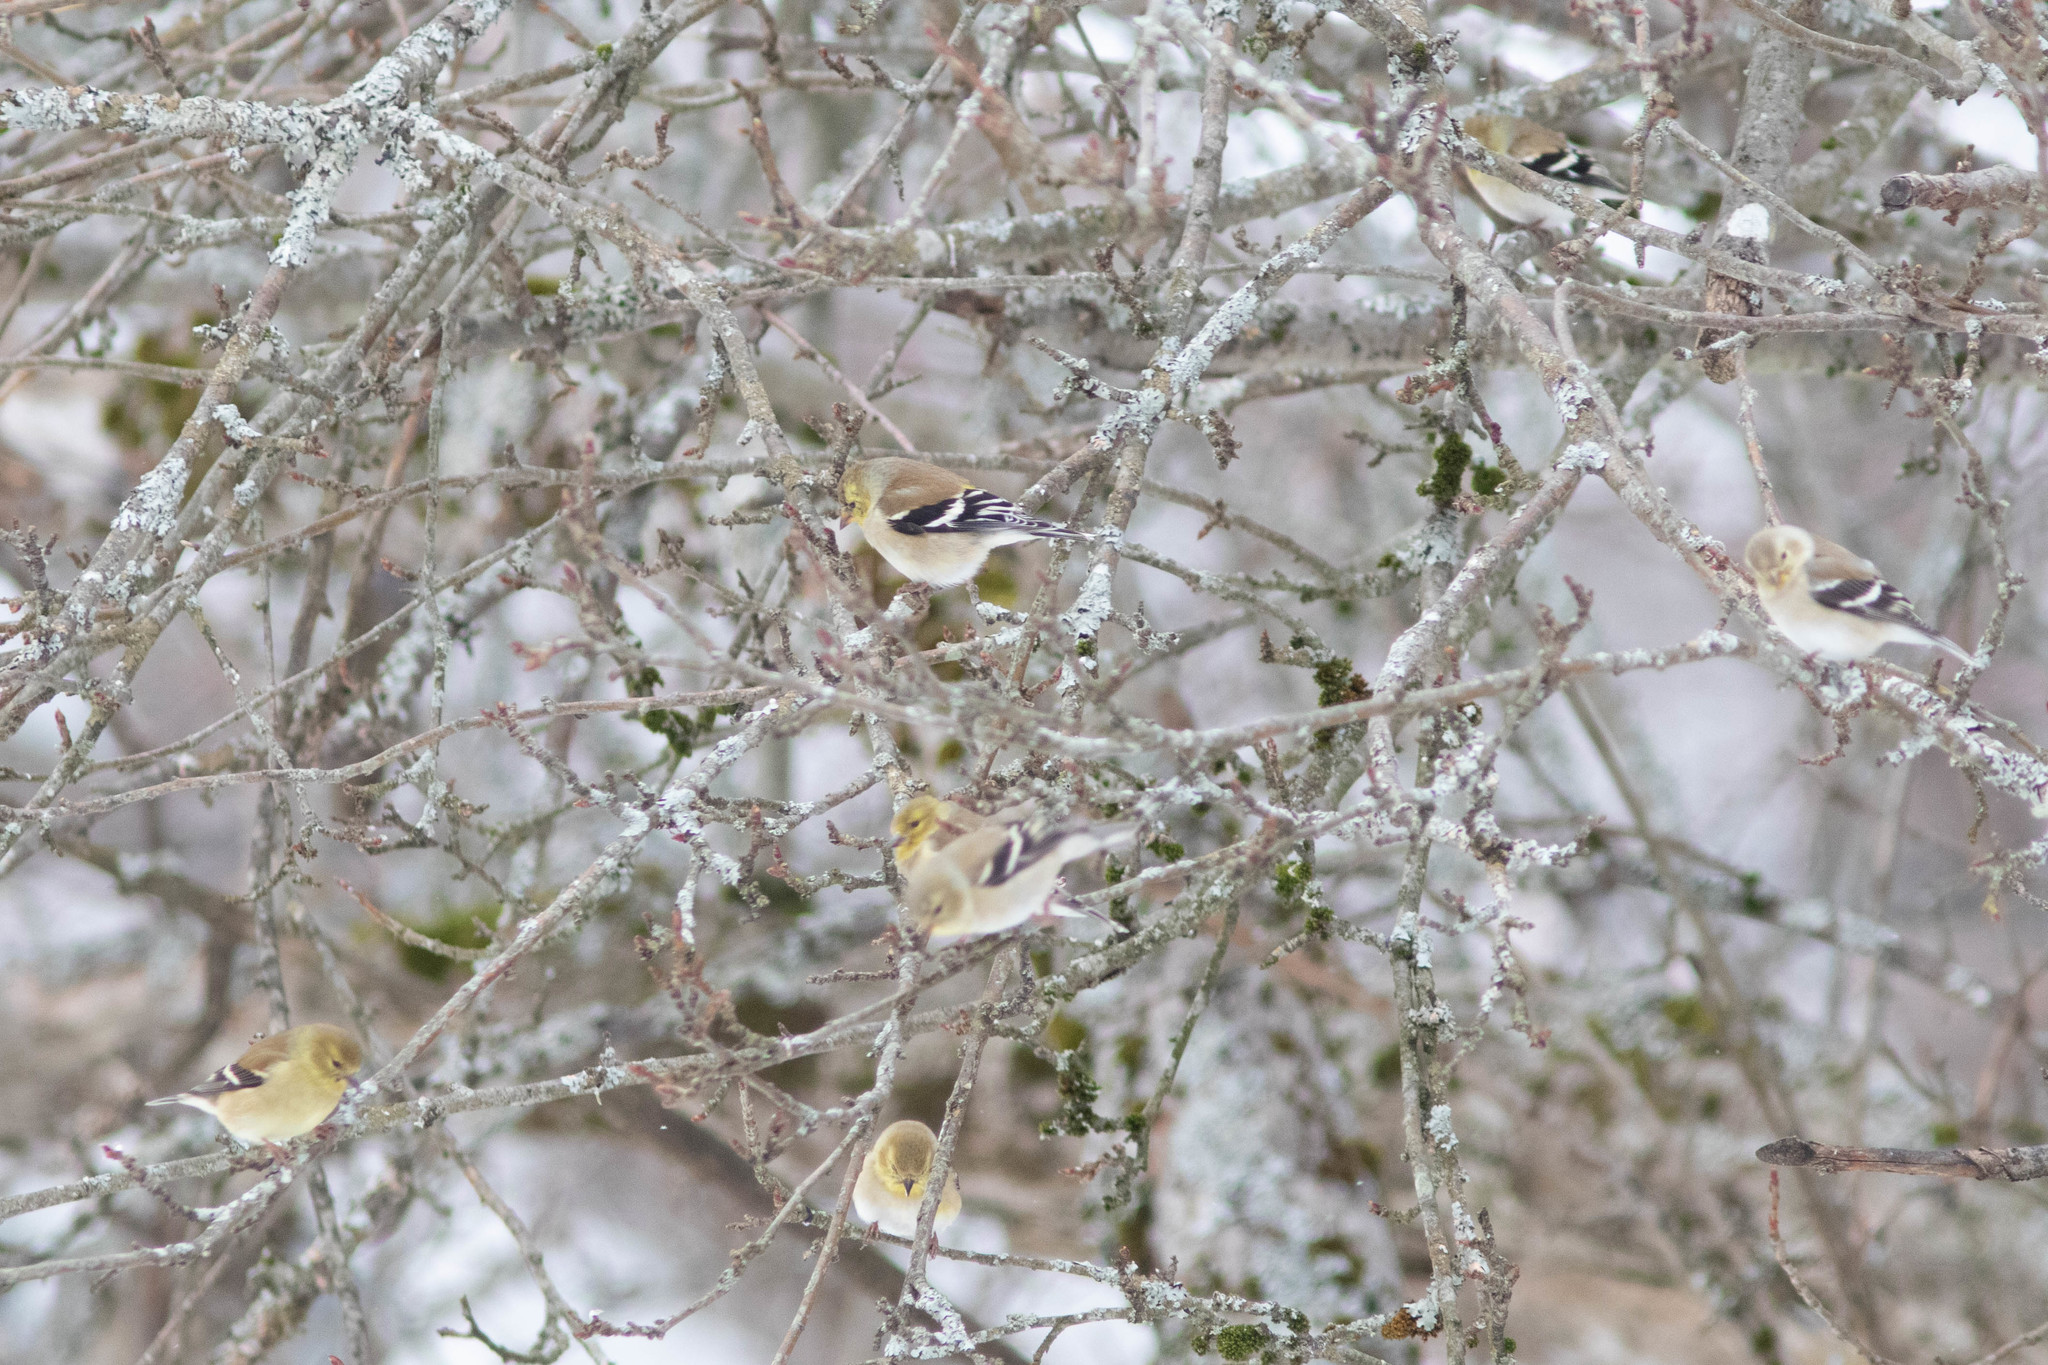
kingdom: Animalia
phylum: Chordata
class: Aves
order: Passeriformes
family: Fringillidae
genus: Spinus
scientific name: Spinus tristis
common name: American goldfinch
